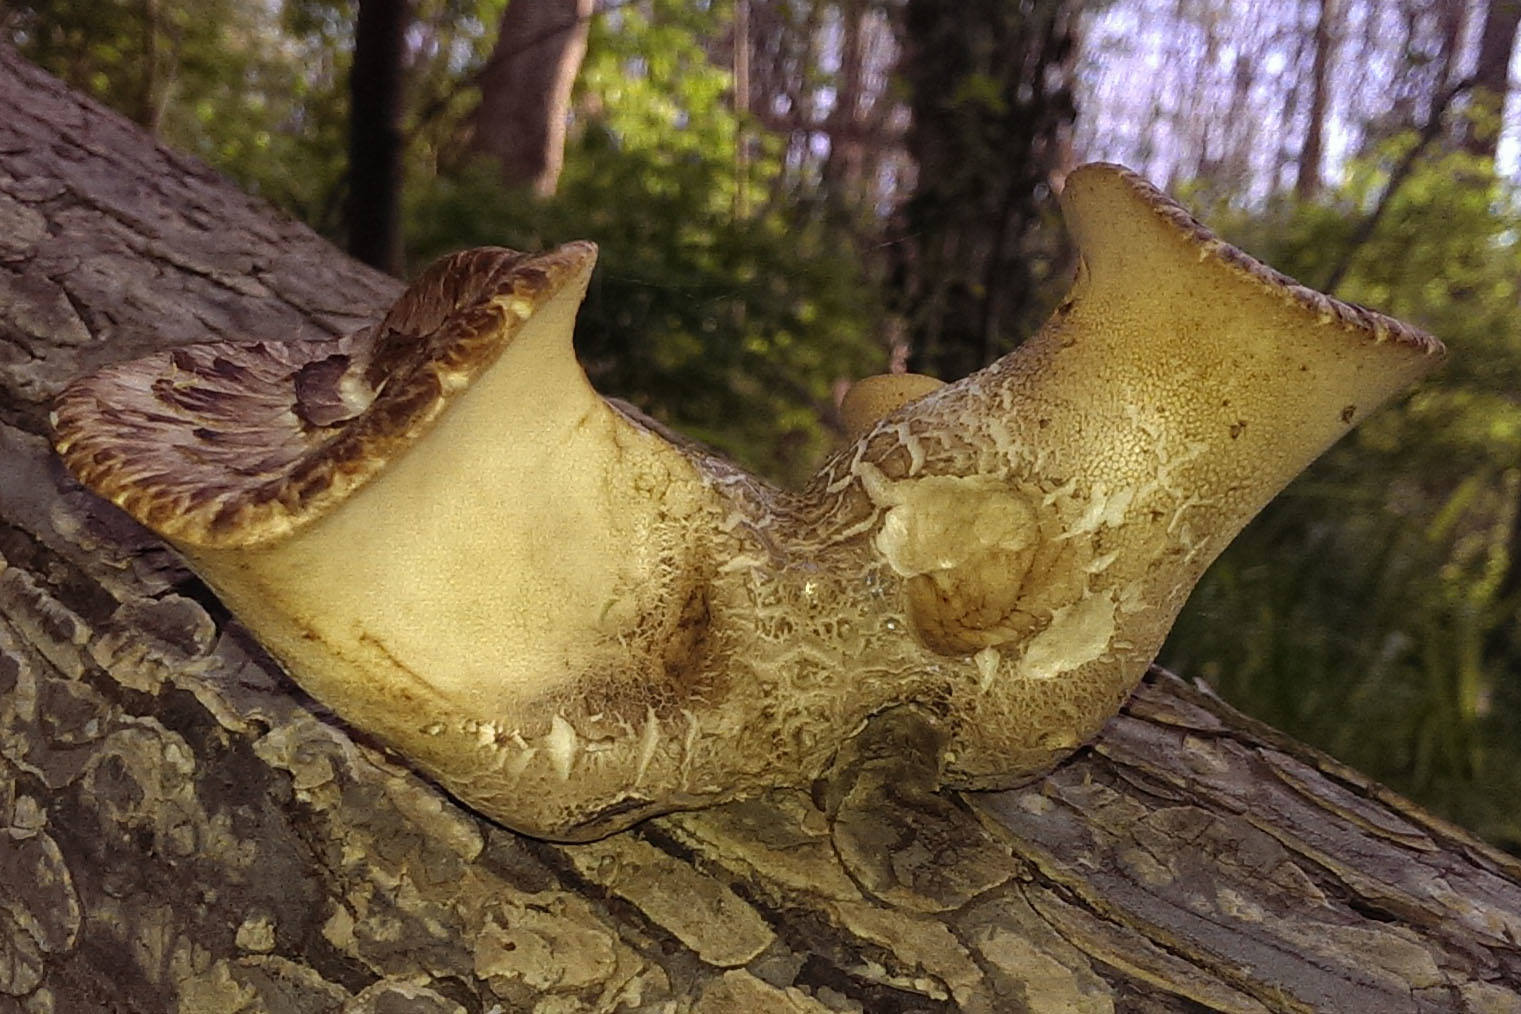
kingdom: Fungi
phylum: Basidiomycota
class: Agaricomycetes
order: Polyporales
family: Polyporaceae
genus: Cerioporus
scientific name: Cerioporus squamosus
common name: Dryad's saddle
